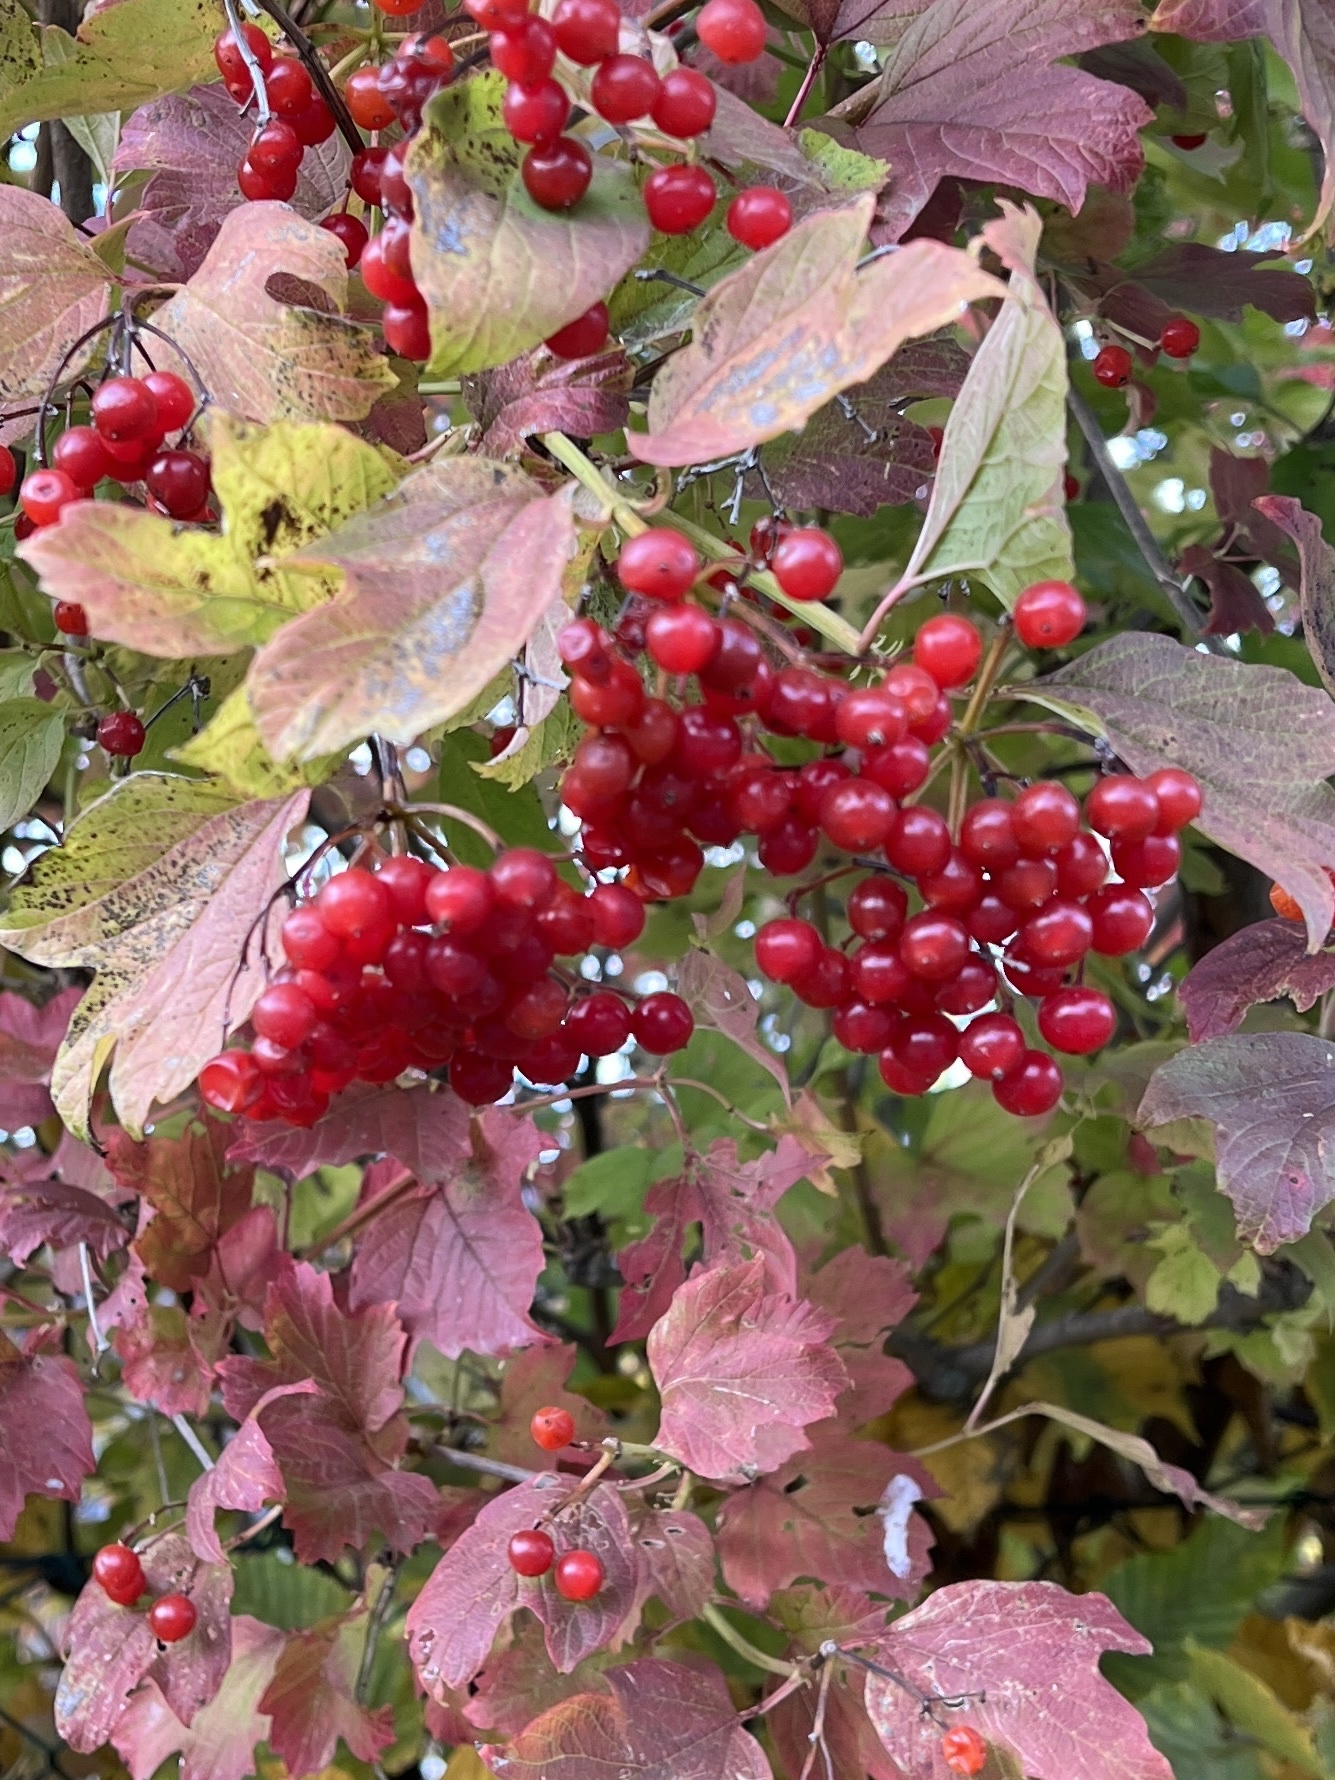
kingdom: Plantae
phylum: Tracheophyta
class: Magnoliopsida
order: Dipsacales
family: Viburnaceae
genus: Viburnum
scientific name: Viburnum opulus
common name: Guelder-rose
